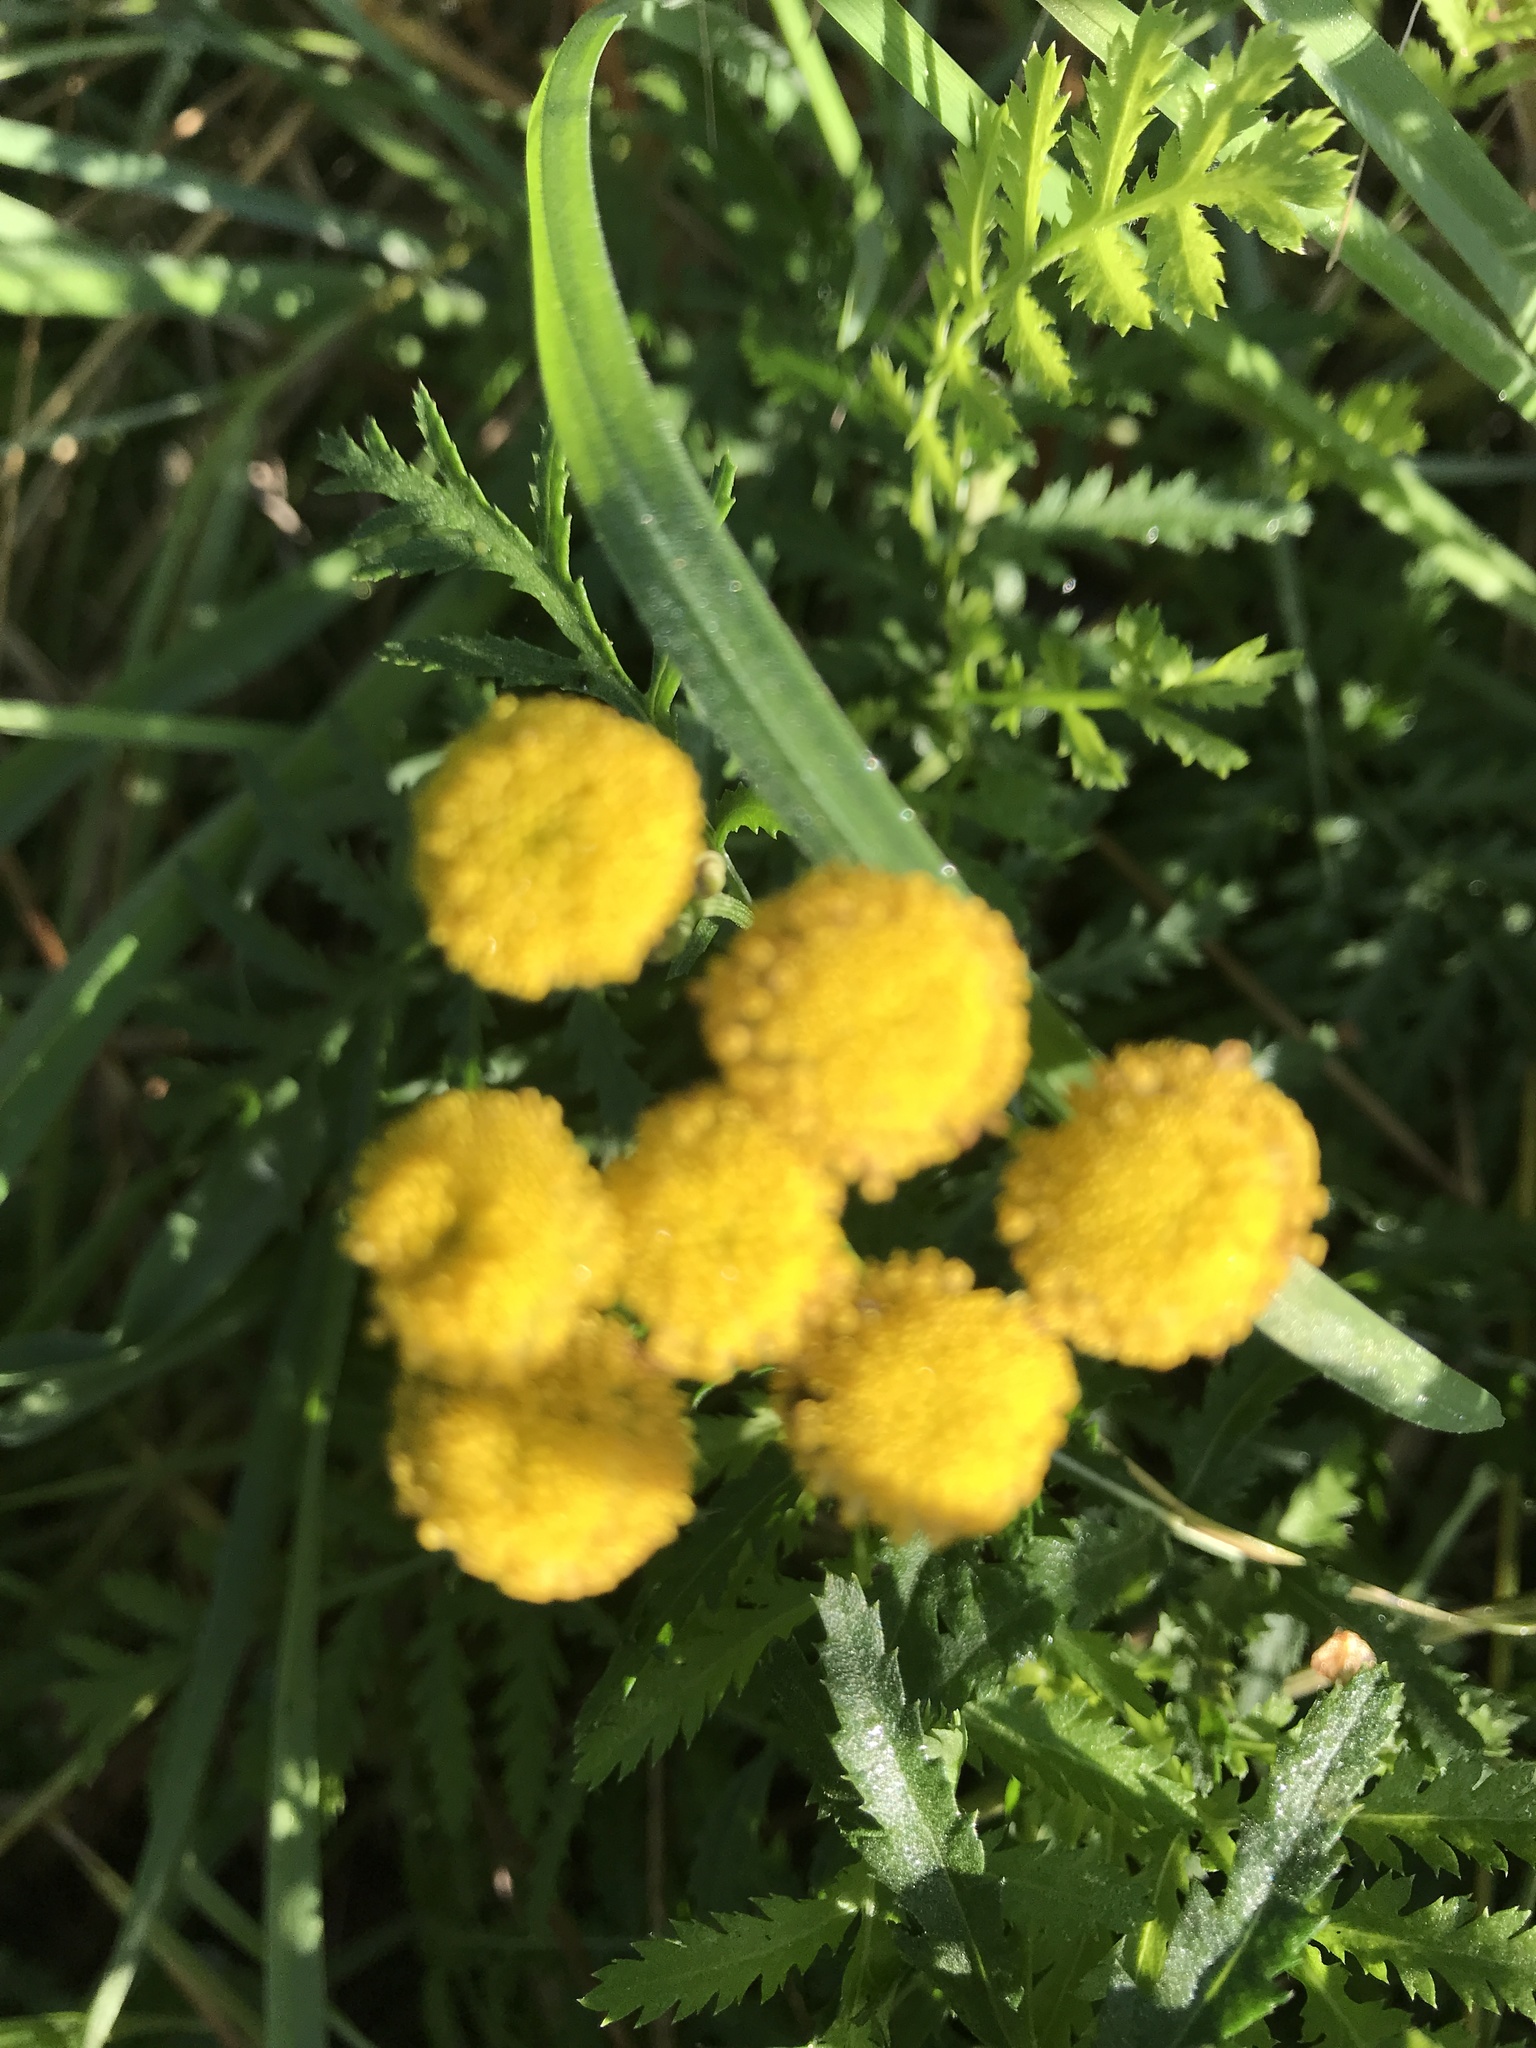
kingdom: Plantae
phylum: Tracheophyta
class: Magnoliopsida
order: Asterales
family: Asteraceae
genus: Tanacetum
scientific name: Tanacetum vulgare
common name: Common tansy
